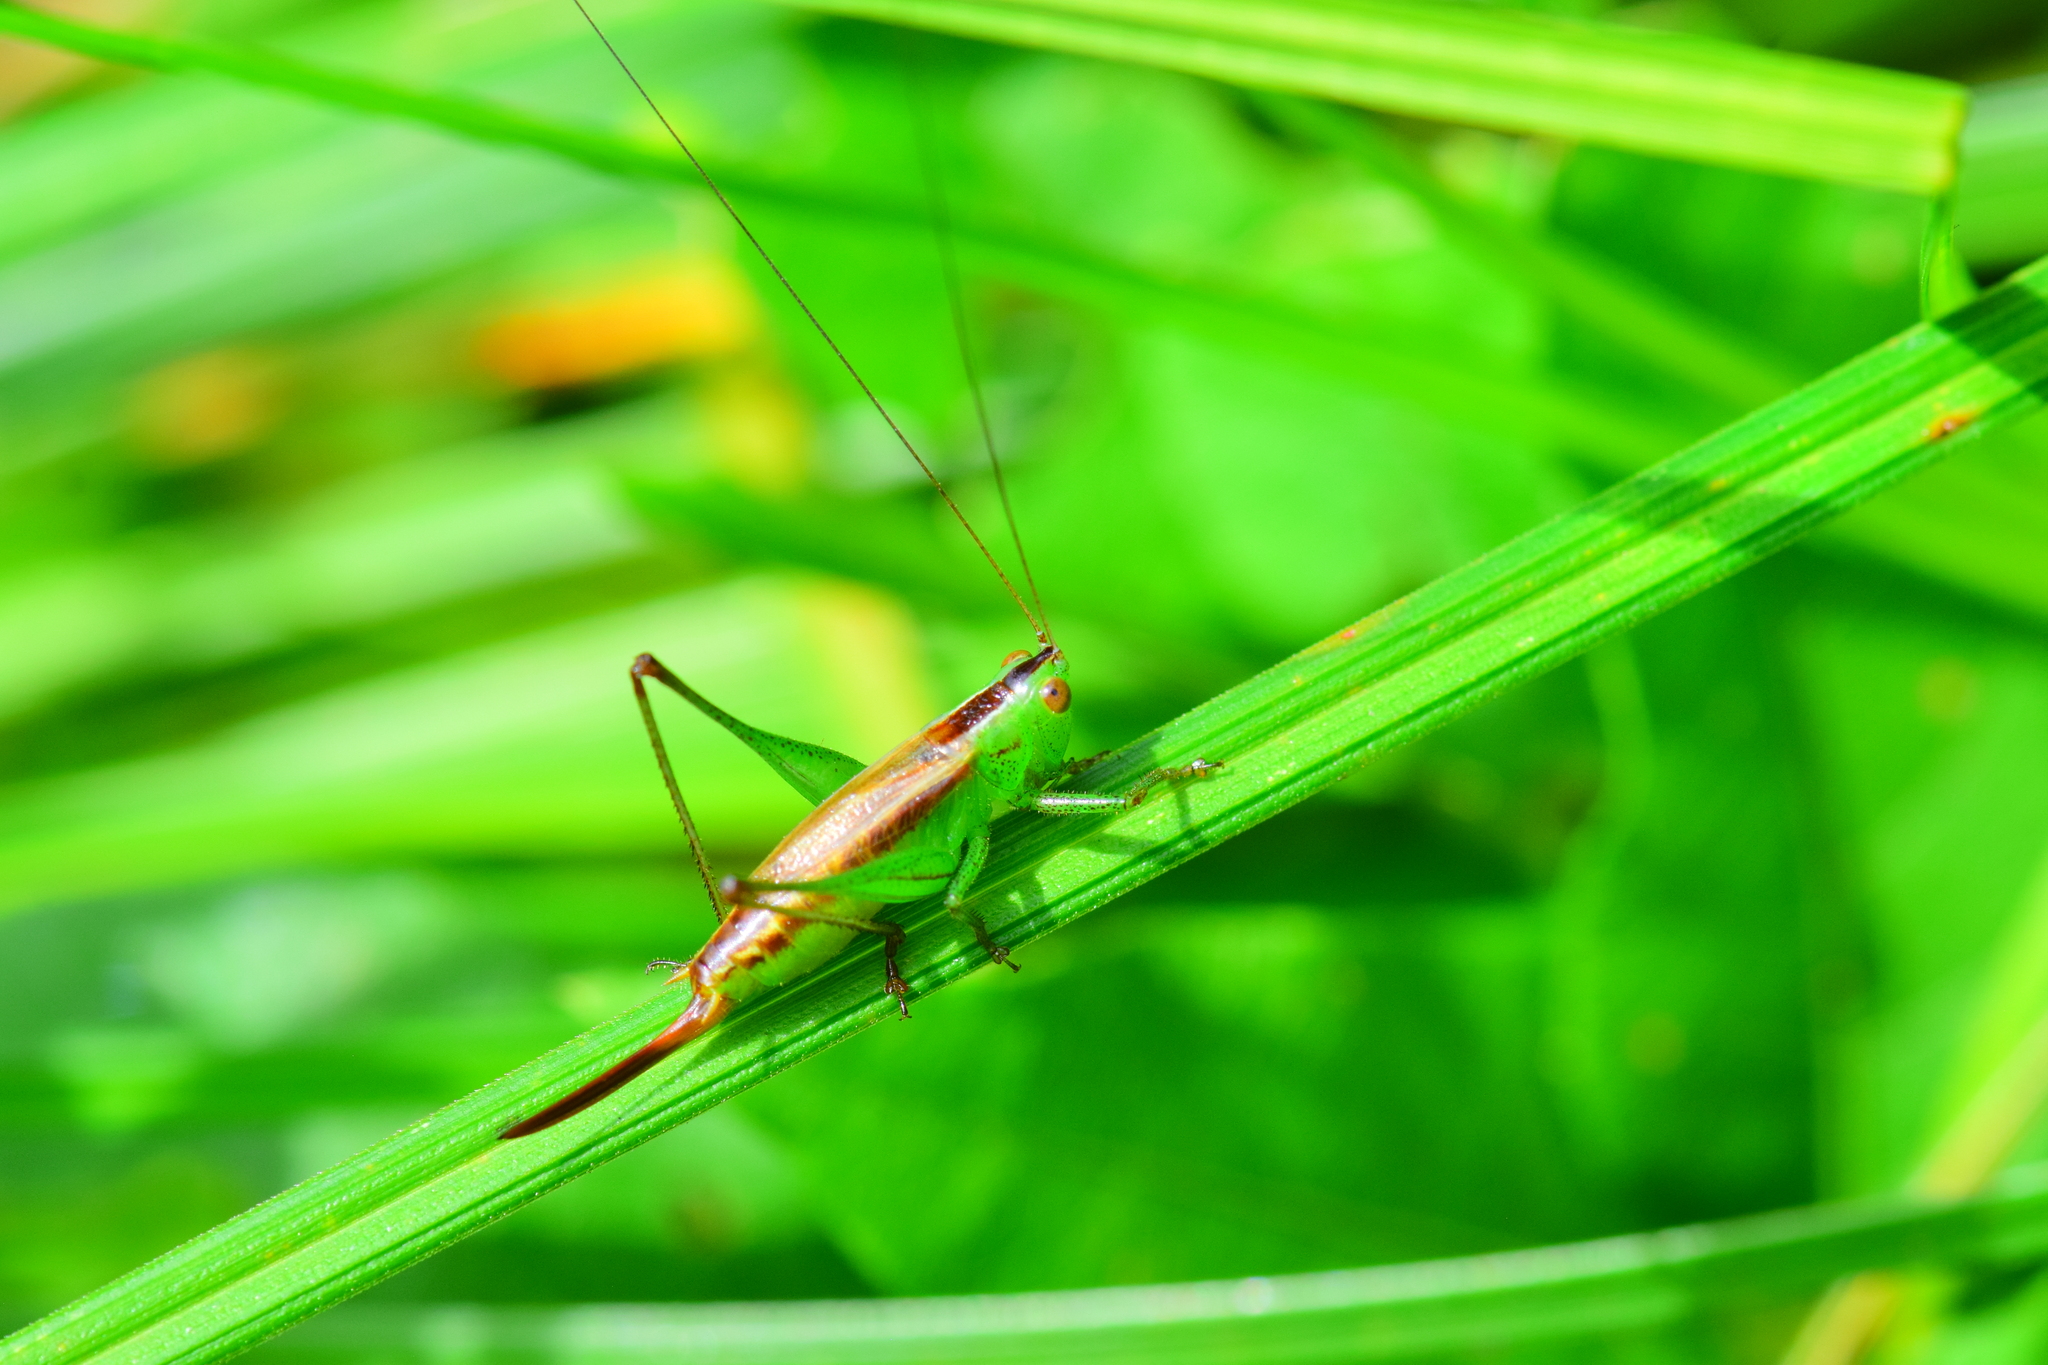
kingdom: Animalia
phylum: Arthropoda
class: Insecta
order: Orthoptera
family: Tettigoniidae
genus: Conocephalus
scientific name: Conocephalus brevipennis
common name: Short-winged meadow katydid
